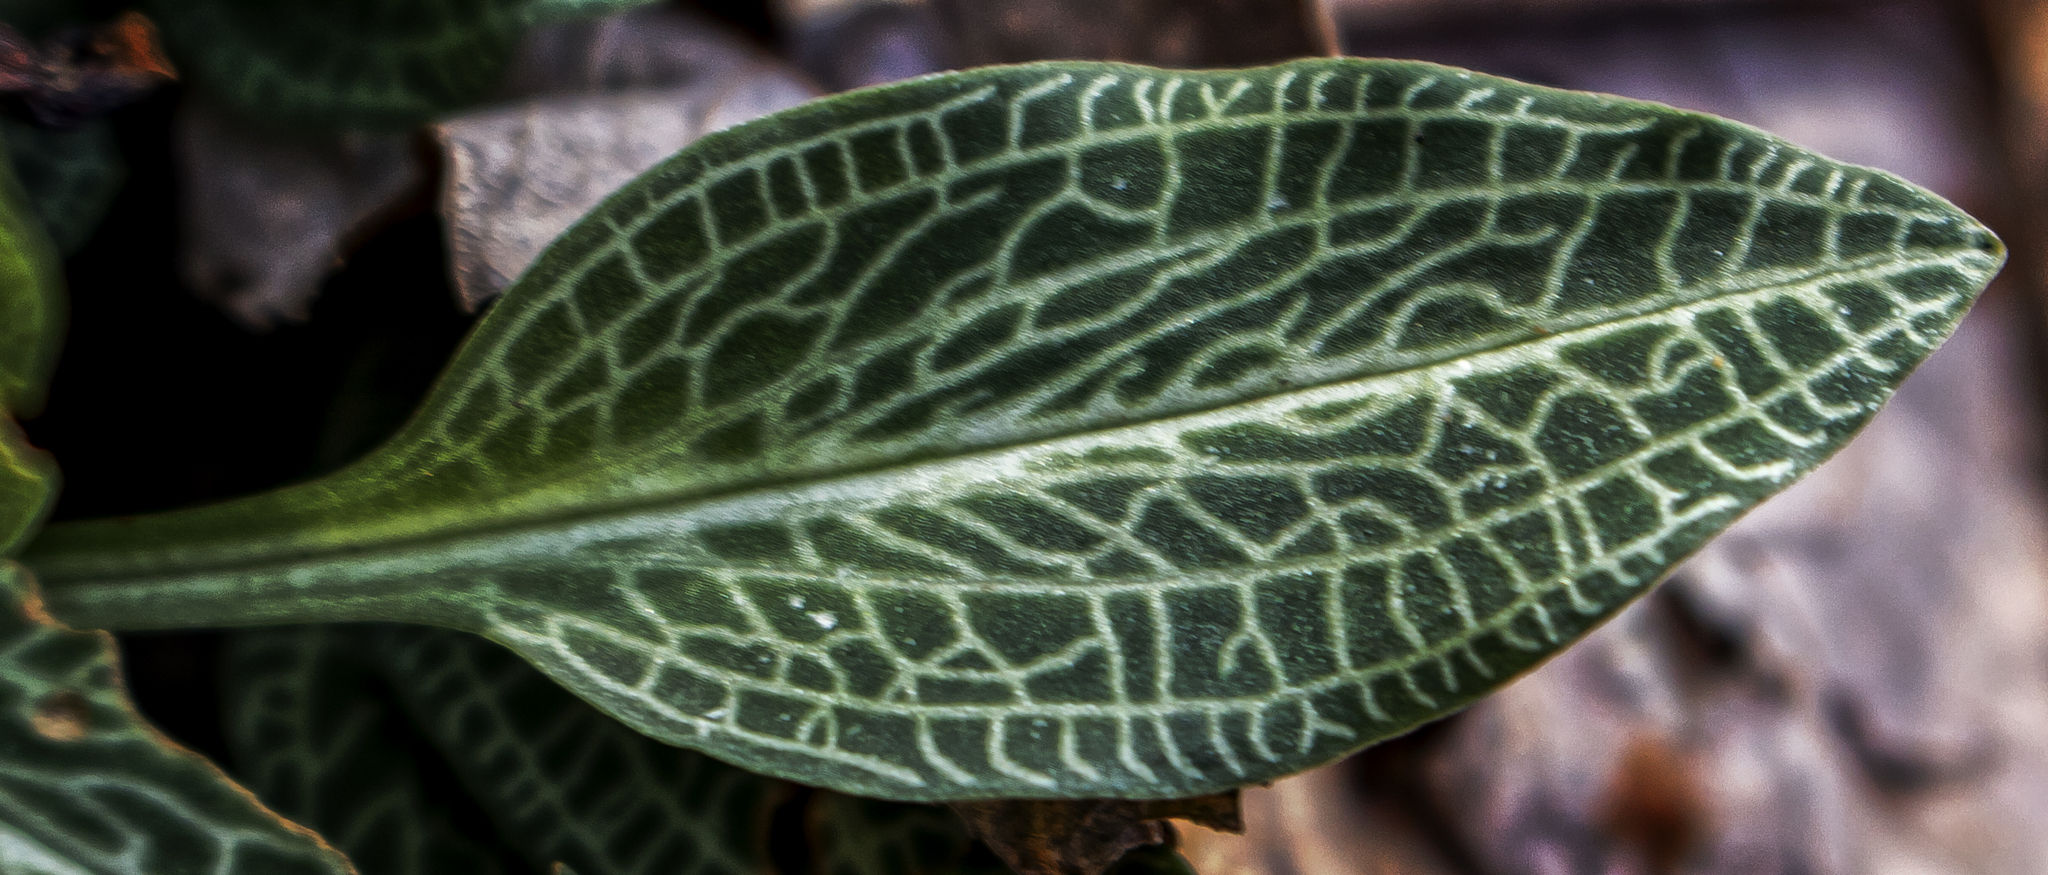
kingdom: Plantae
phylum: Tracheophyta
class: Liliopsida
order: Asparagales
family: Orchidaceae
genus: Goodyera
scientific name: Goodyera pubescens
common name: Downy rattlesnake-plantain
